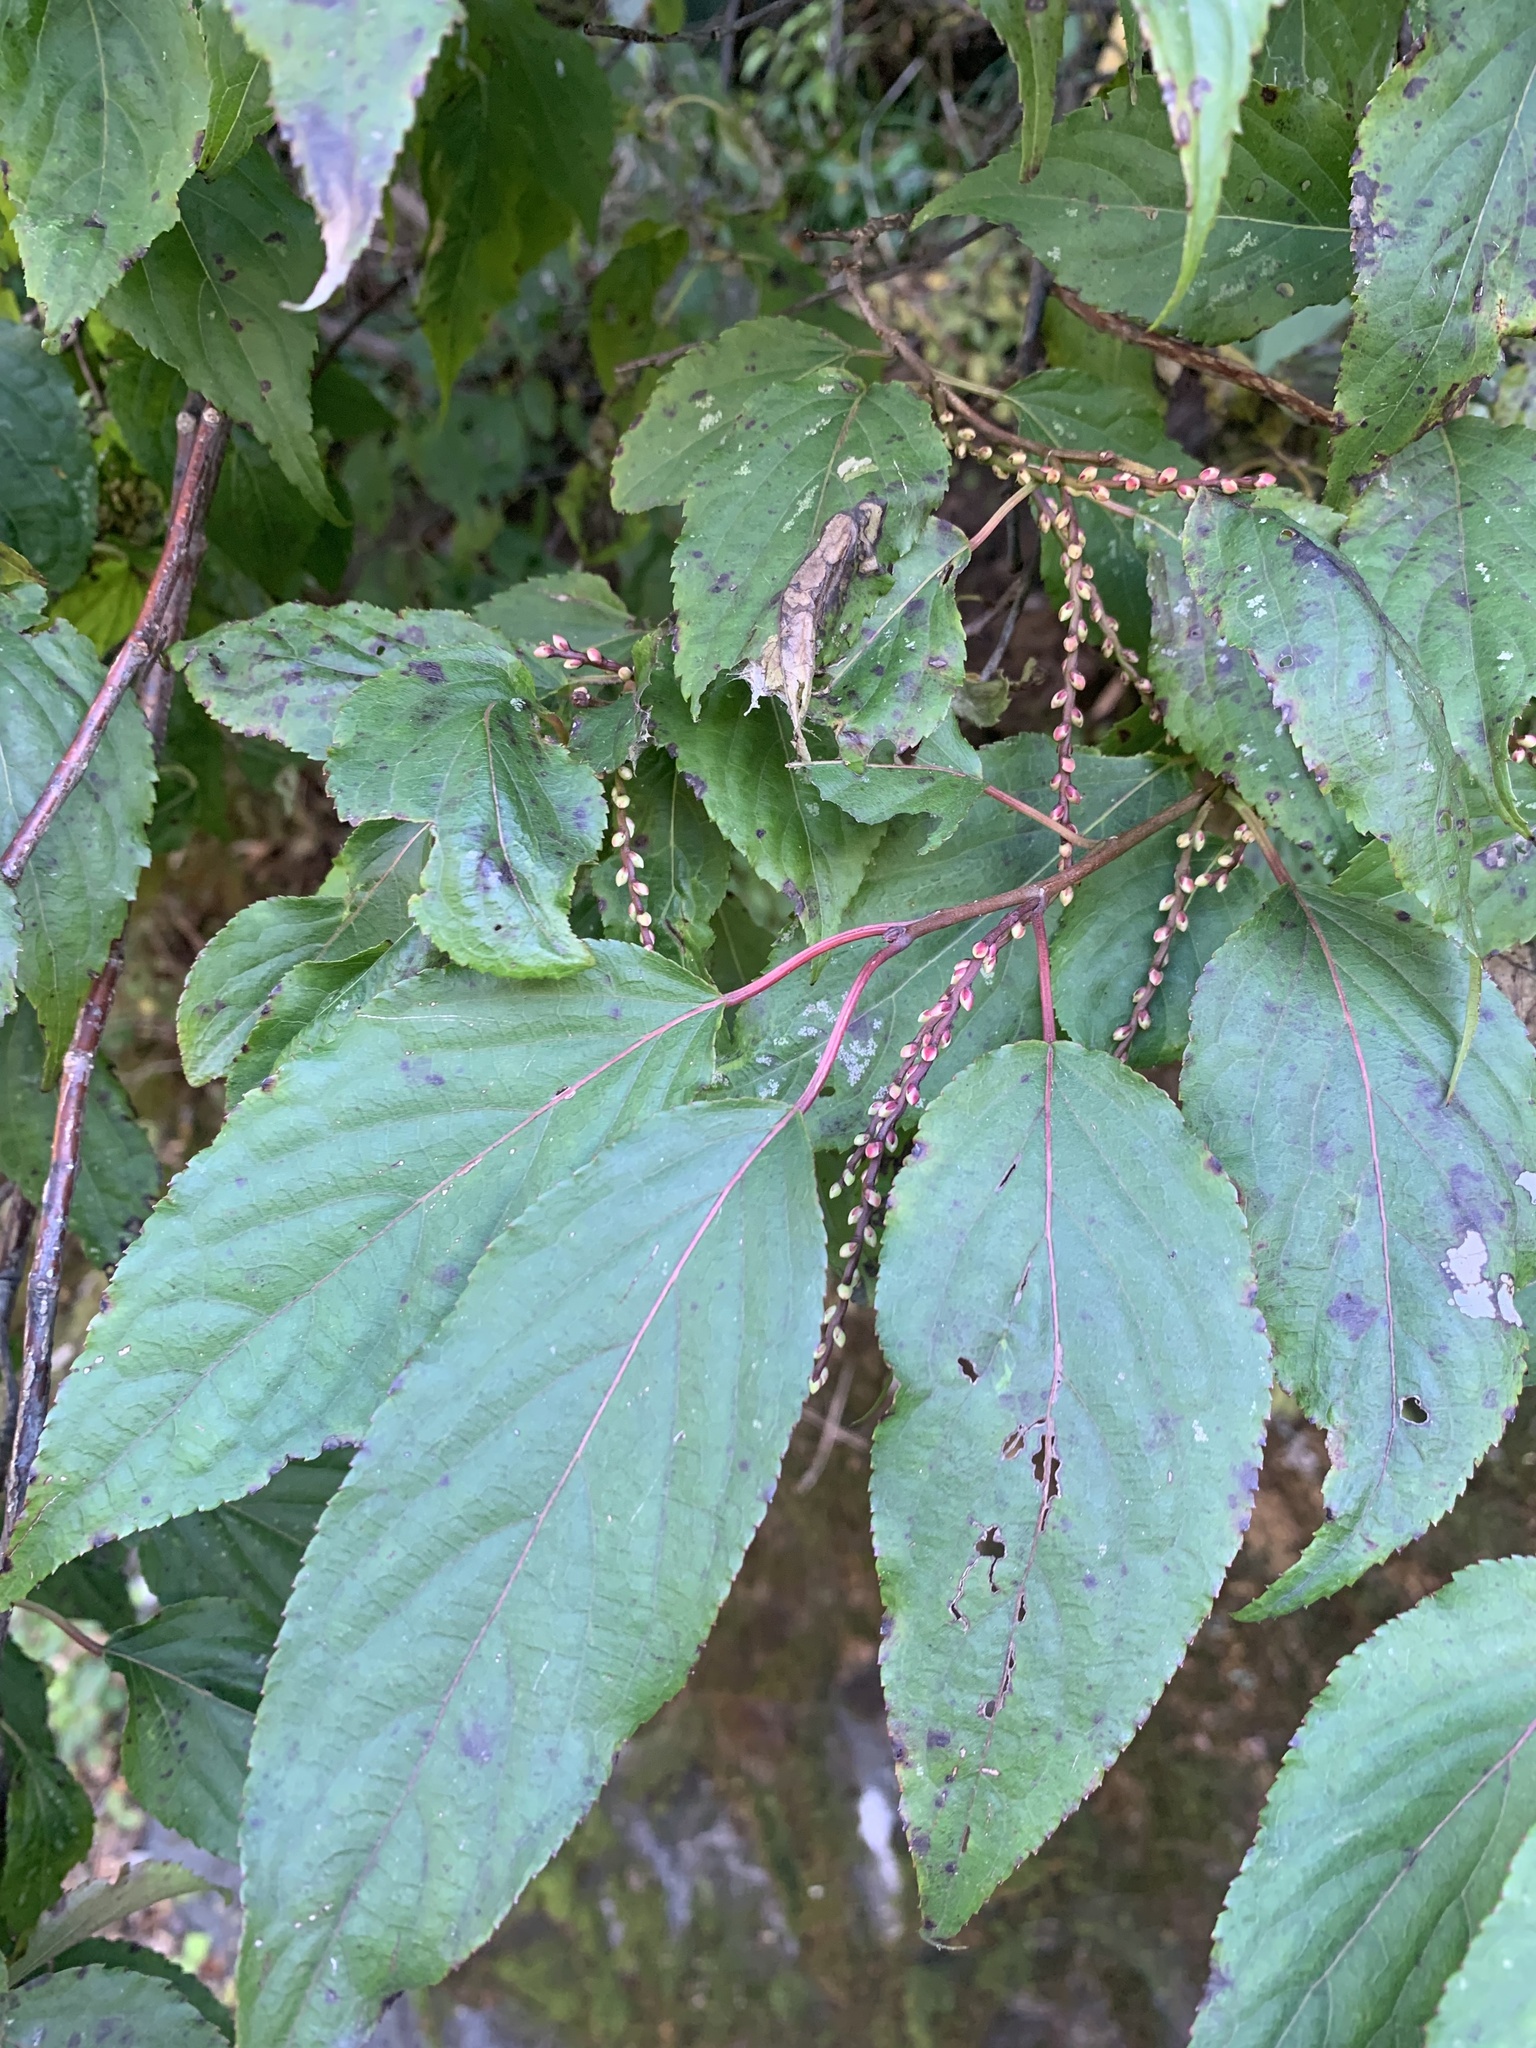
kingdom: Plantae
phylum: Tracheophyta
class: Magnoliopsida
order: Crossosomatales
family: Stachyuraceae
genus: Stachyurus
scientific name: Stachyurus praecox
